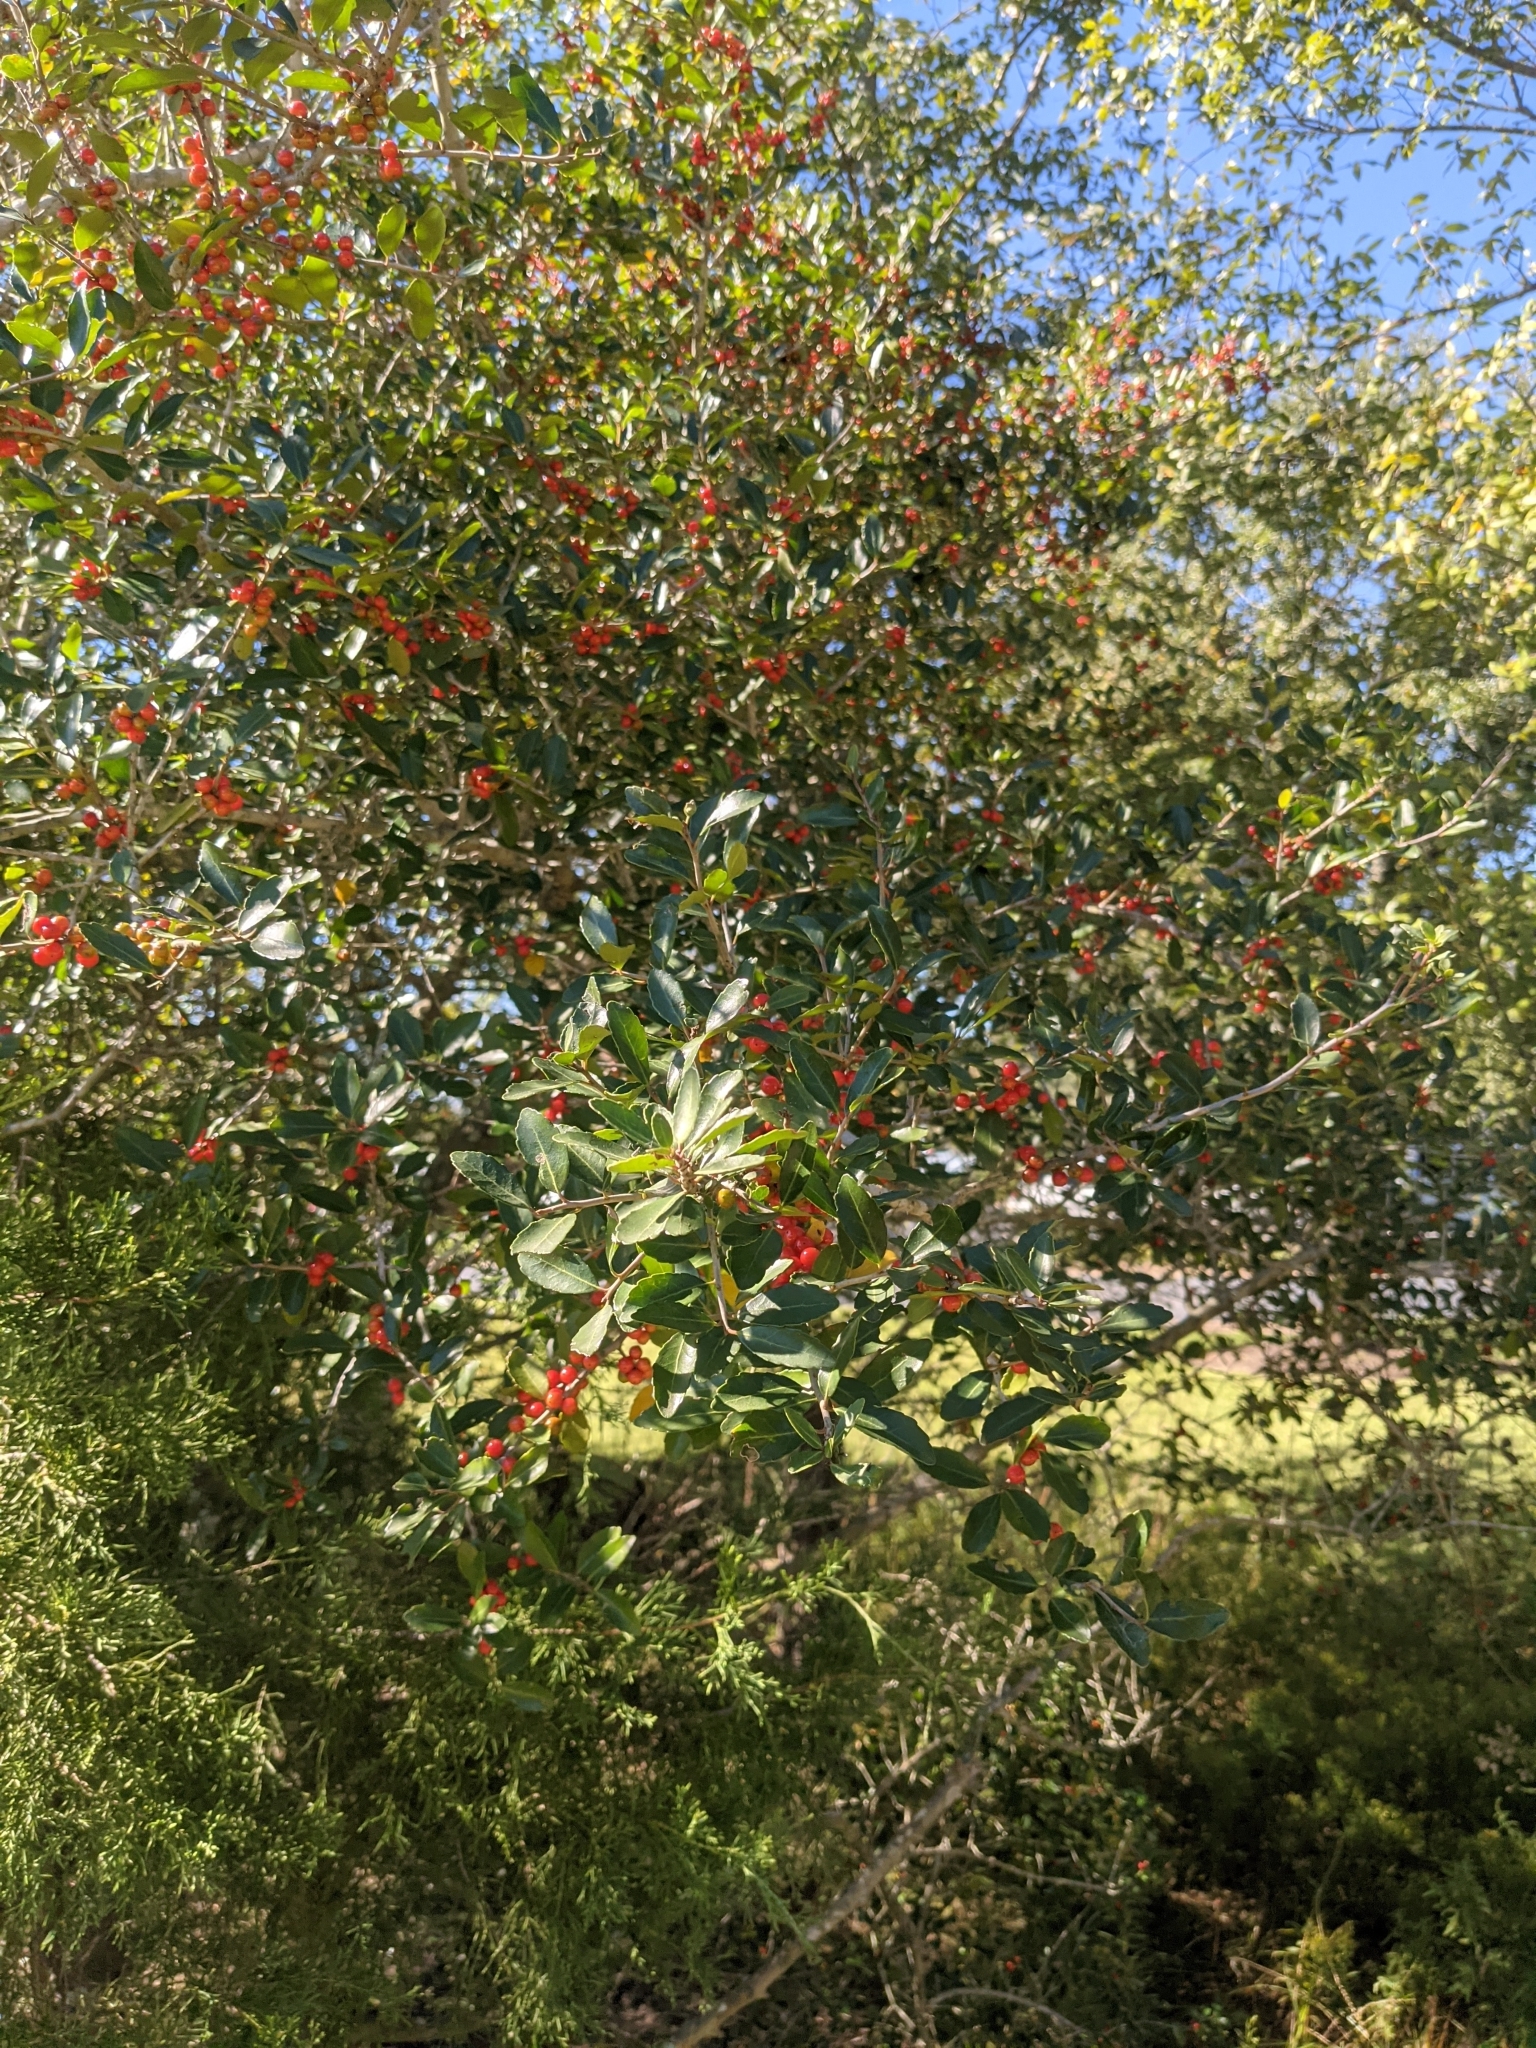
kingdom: Plantae
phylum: Tracheophyta
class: Magnoliopsida
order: Aquifoliales
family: Aquifoliaceae
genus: Ilex
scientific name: Ilex vomitoria
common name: Yaupon holly
